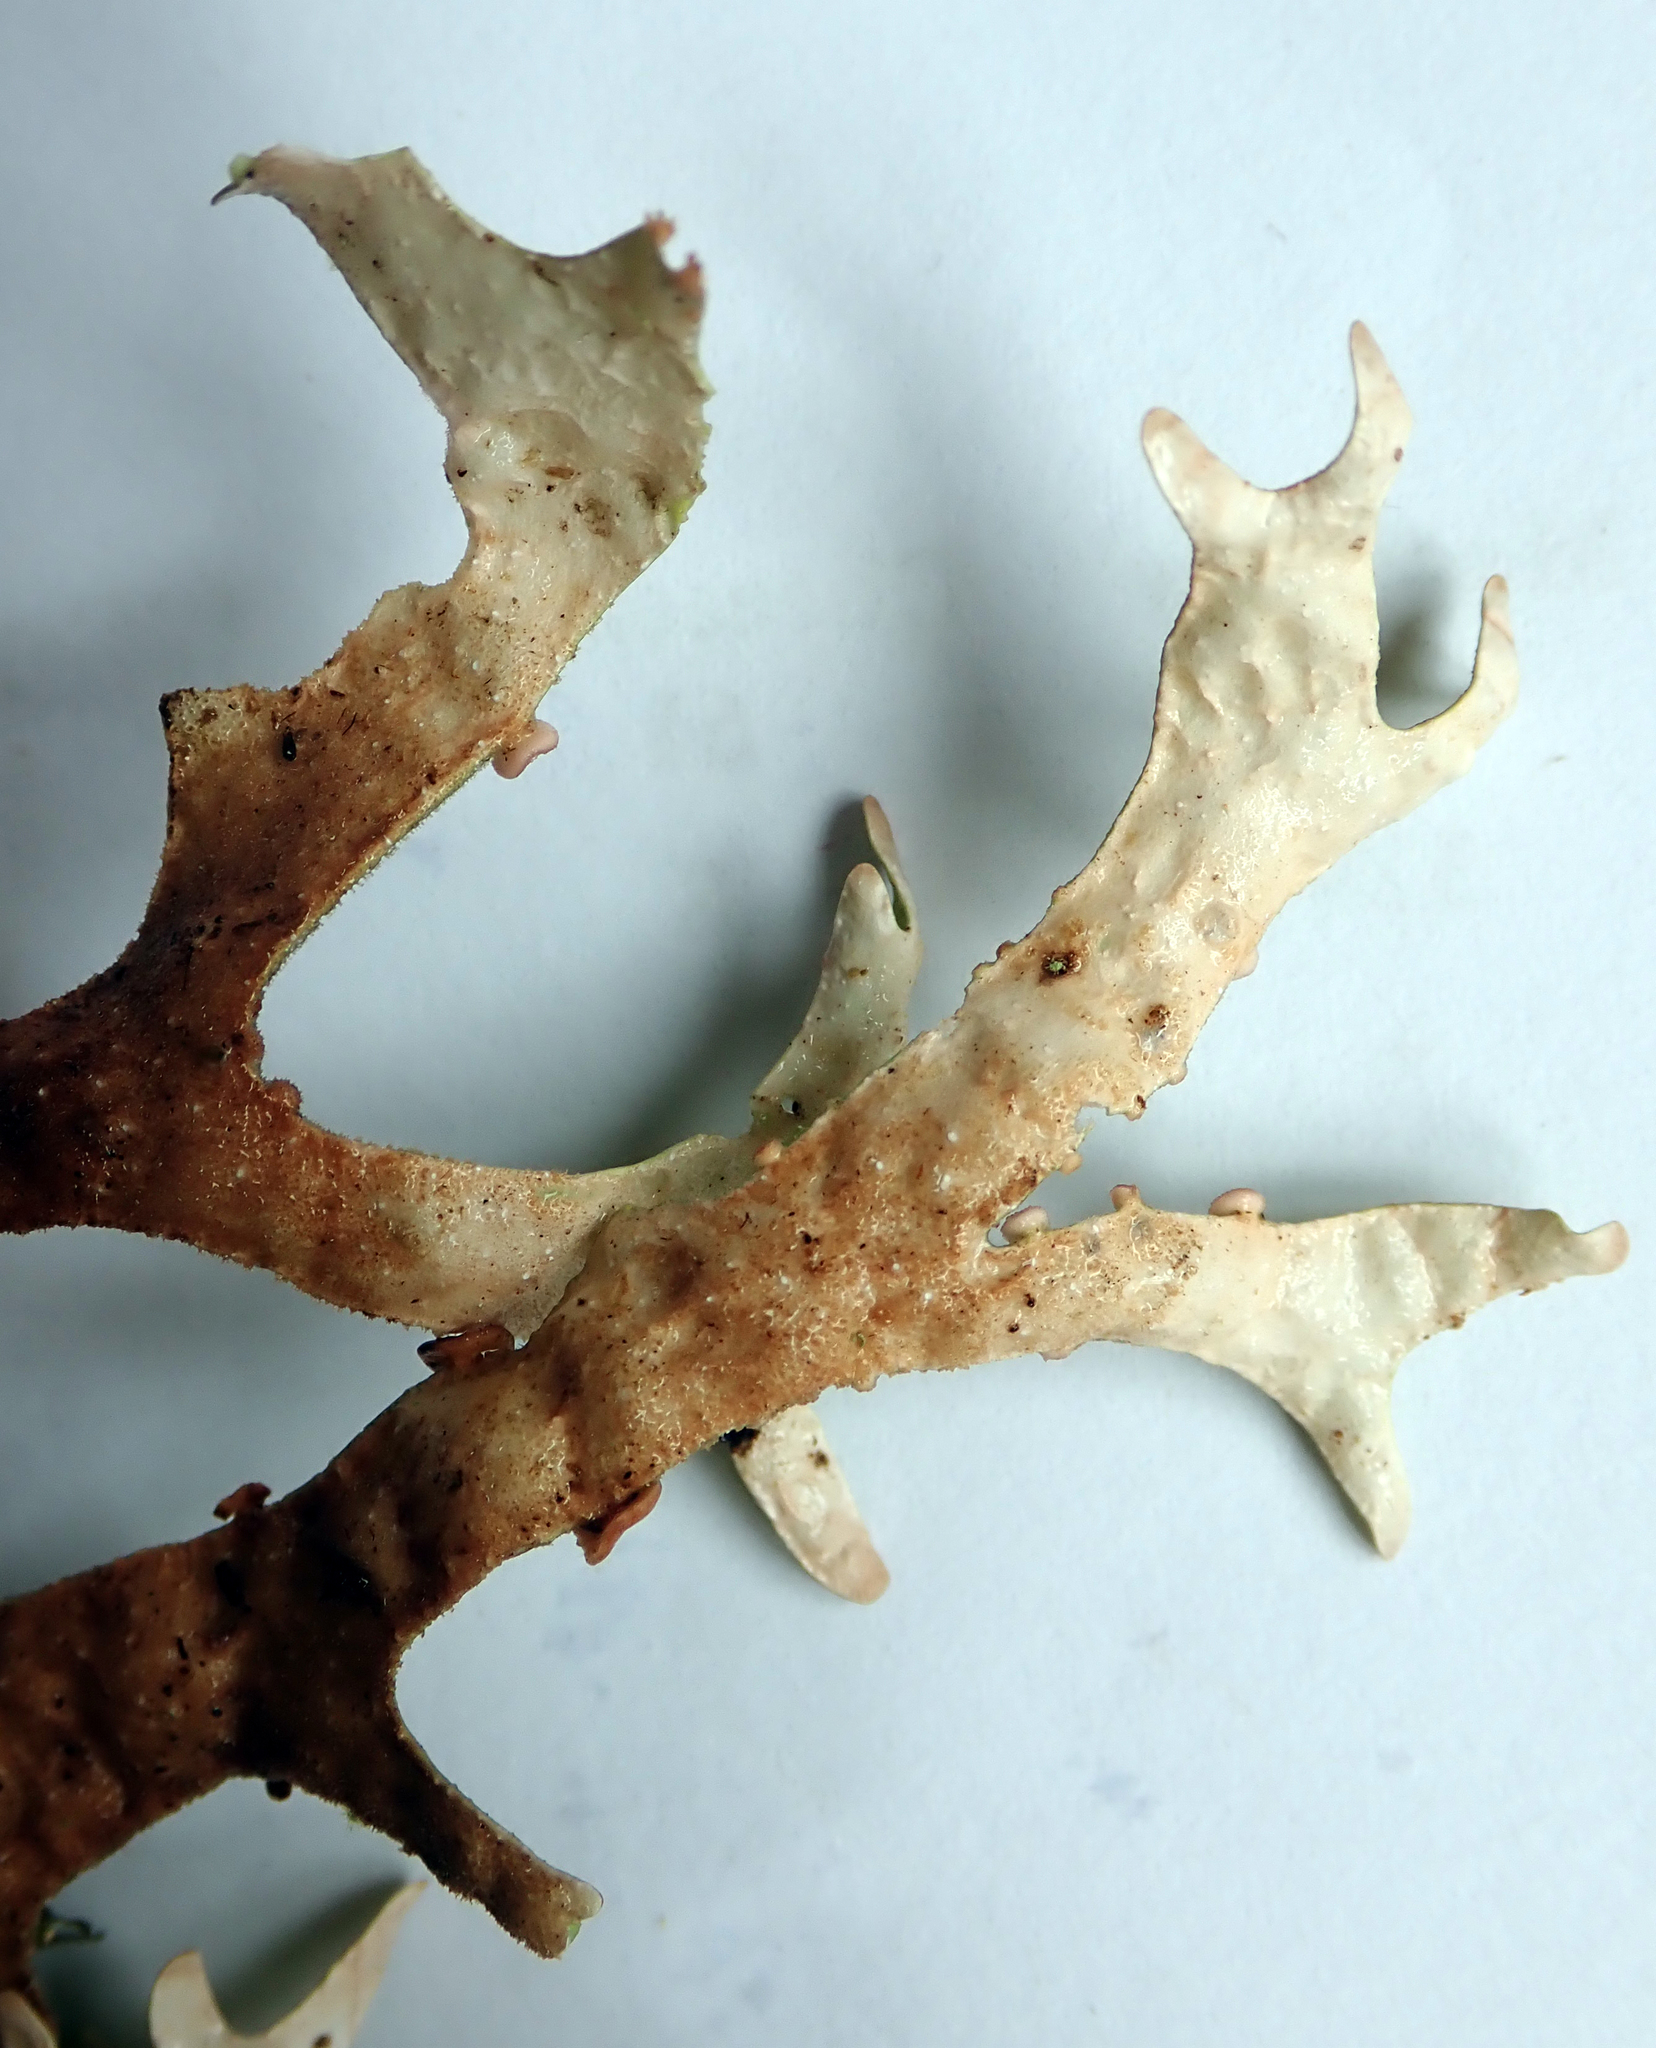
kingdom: Fungi
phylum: Ascomycota
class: Lecanoromycetes
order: Peltigerales
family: Lobariaceae
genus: Pseudocyphellaria
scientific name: Pseudocyphellaria rufovirescens
